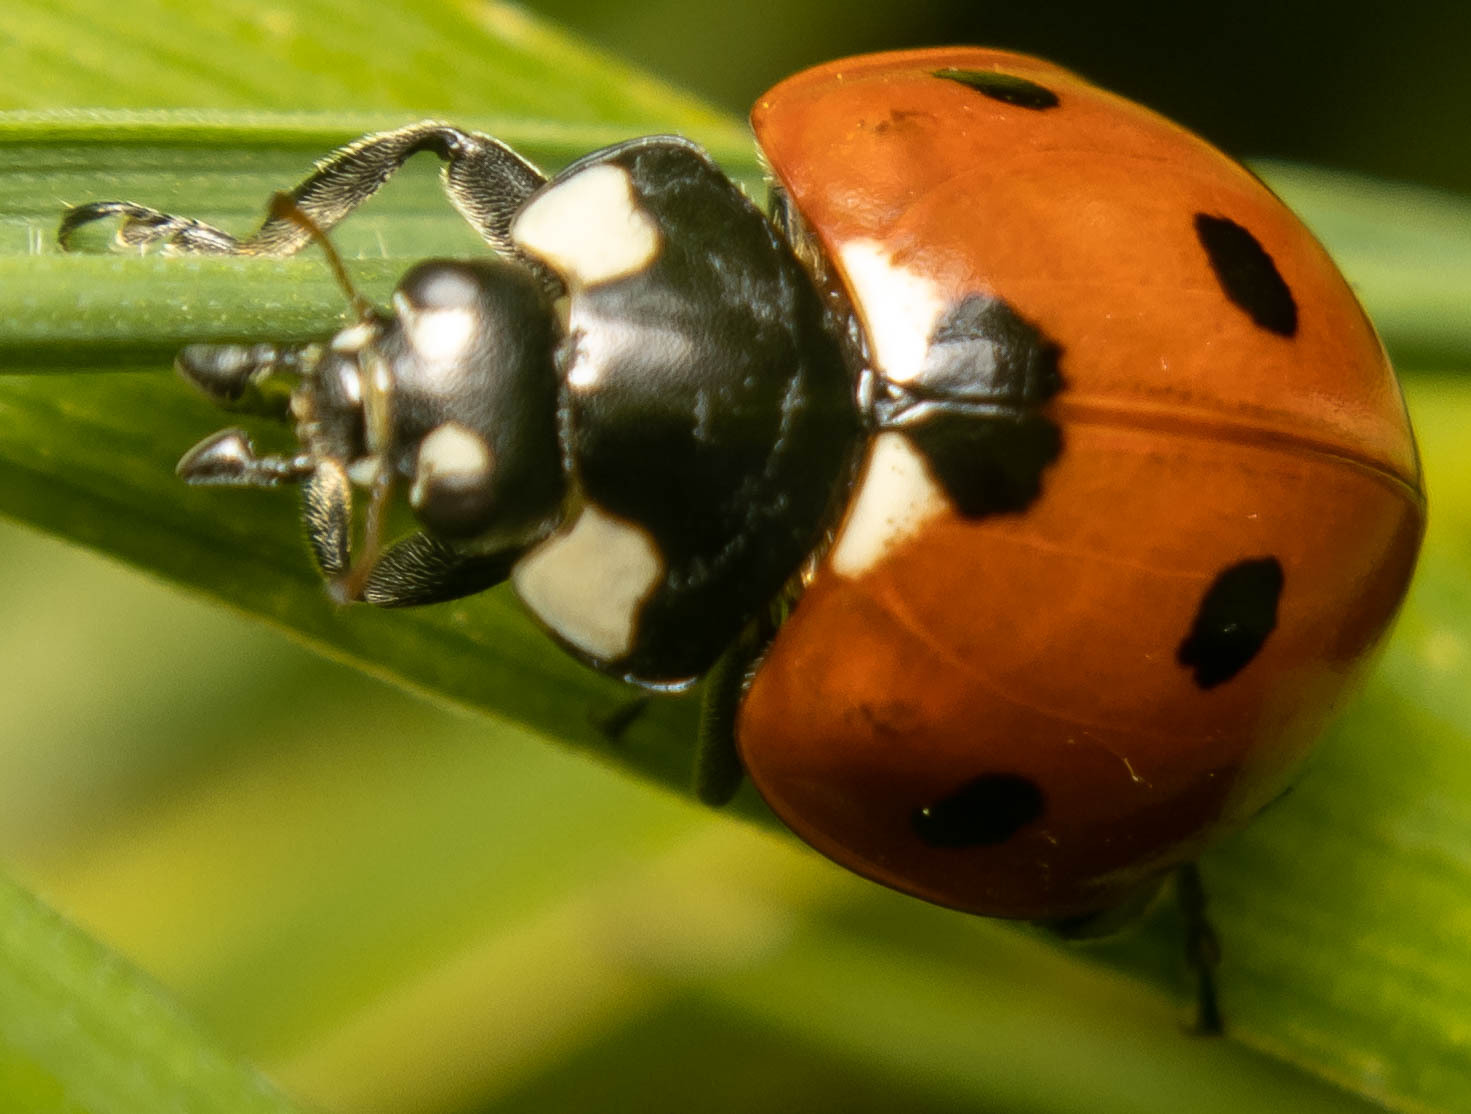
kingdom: Animalia
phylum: Arthropoda
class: Insecta
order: Coleoptera
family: Coccinellidae
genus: Coccinella
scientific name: Coccinella septempunctata
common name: Sevenspotted lady beetle
